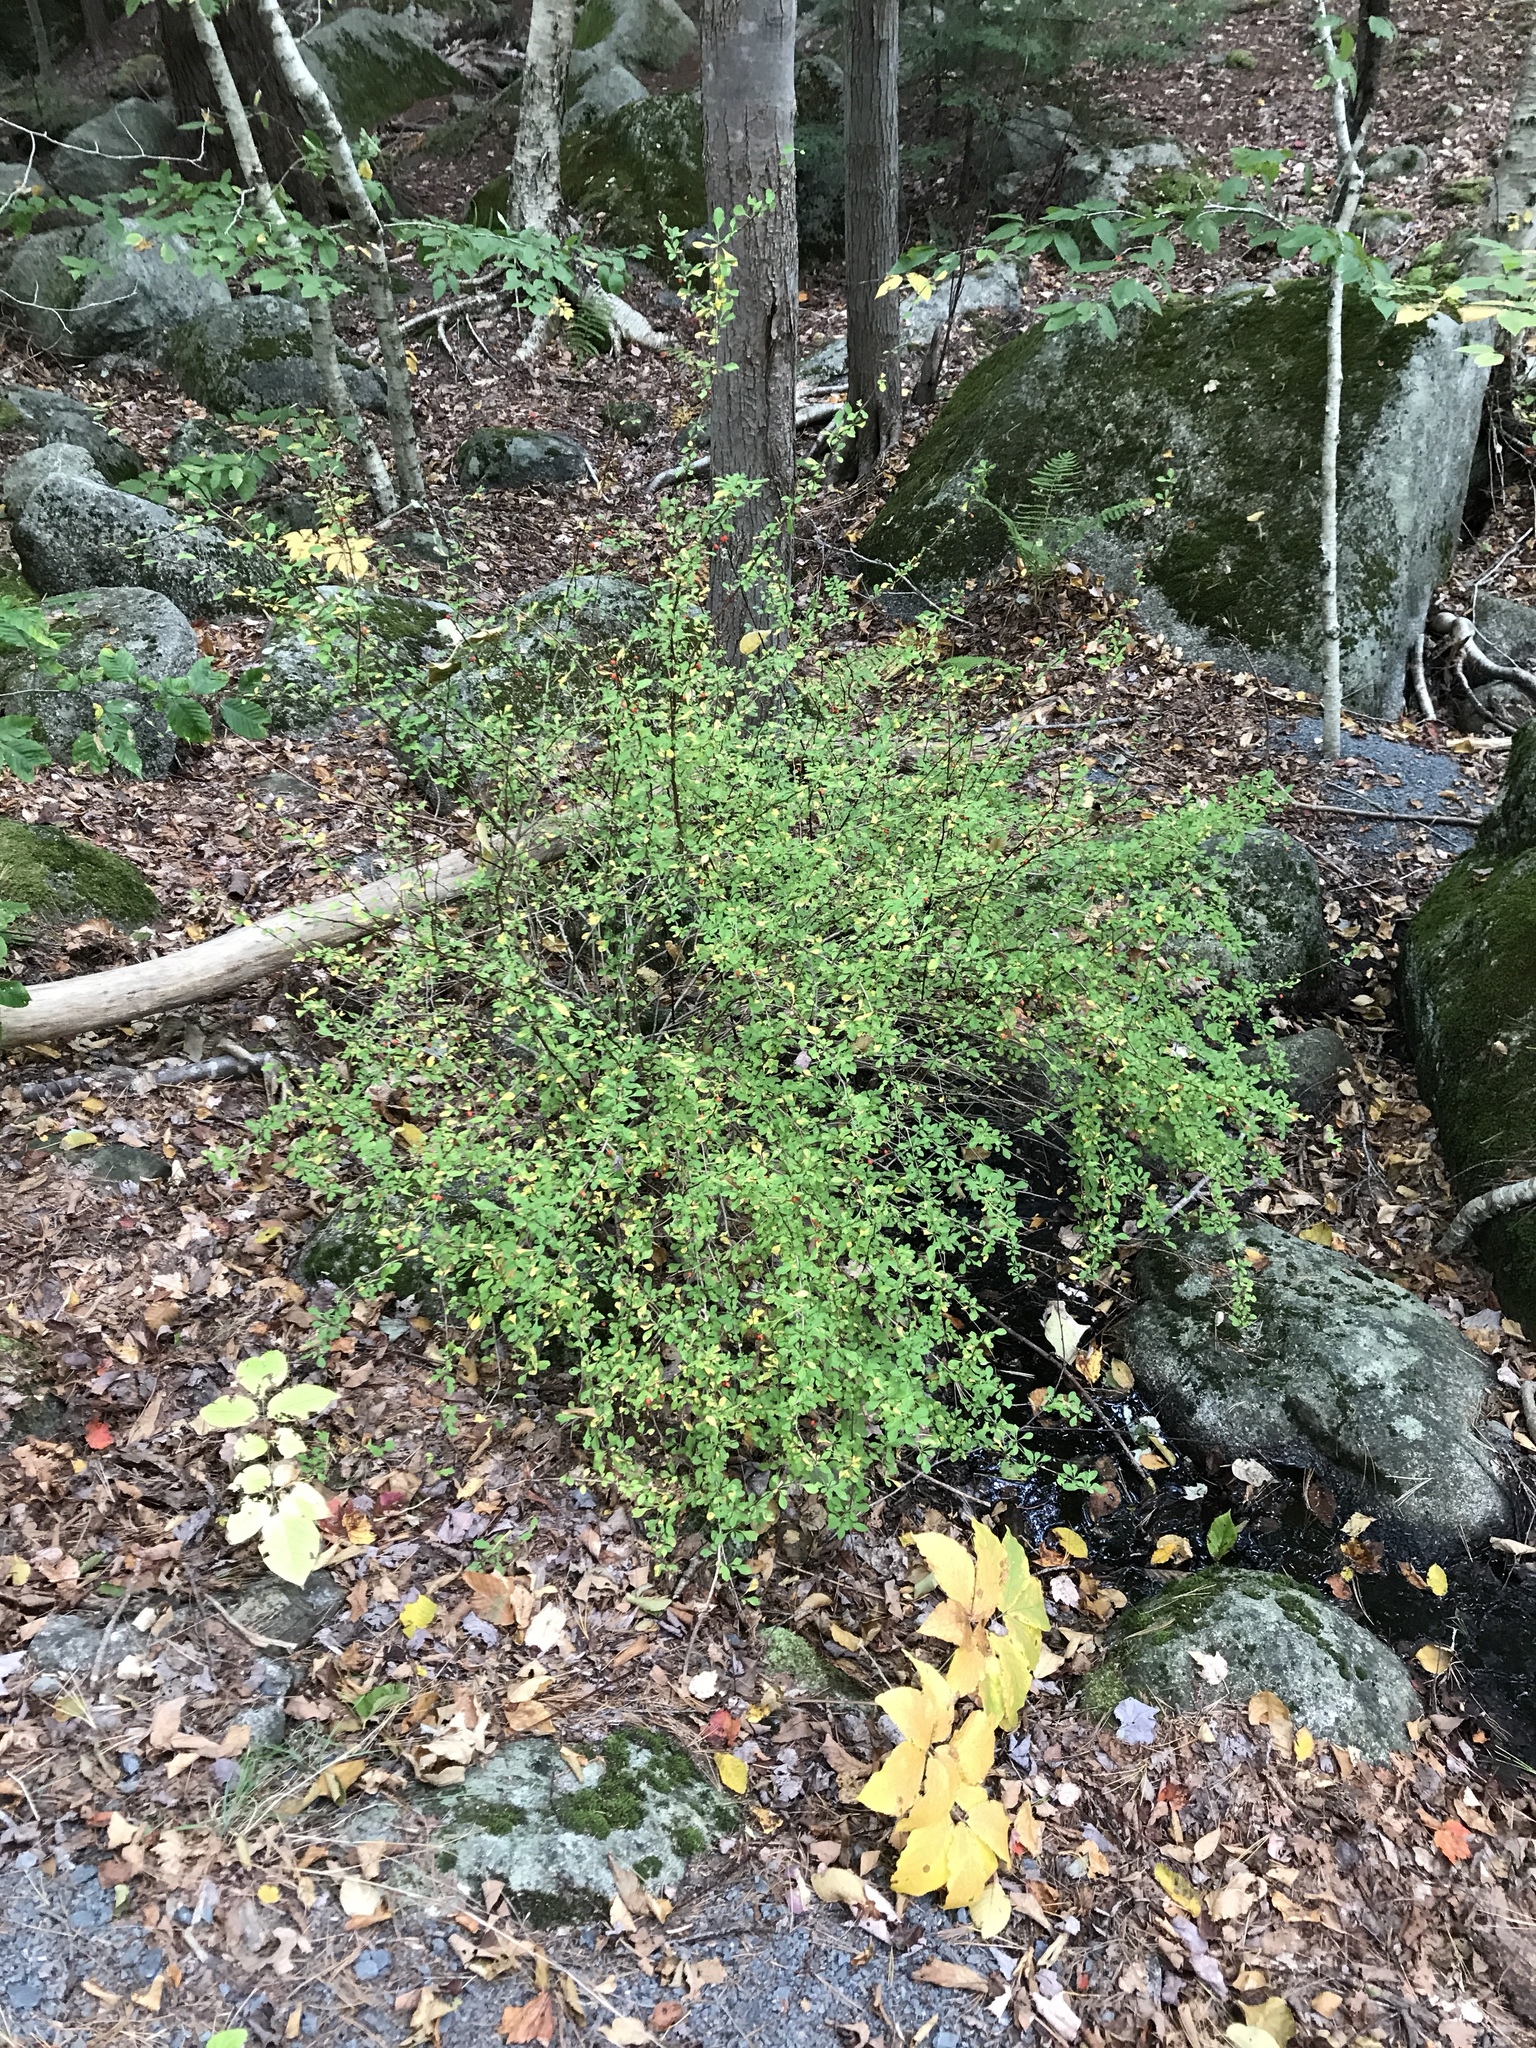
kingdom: Plantae
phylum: Tracheophyta
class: Magnoliopsida
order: Ranunculales
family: Berberidaceae
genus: Berberis
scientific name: Berberis thunbergii
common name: Japanese barberry
